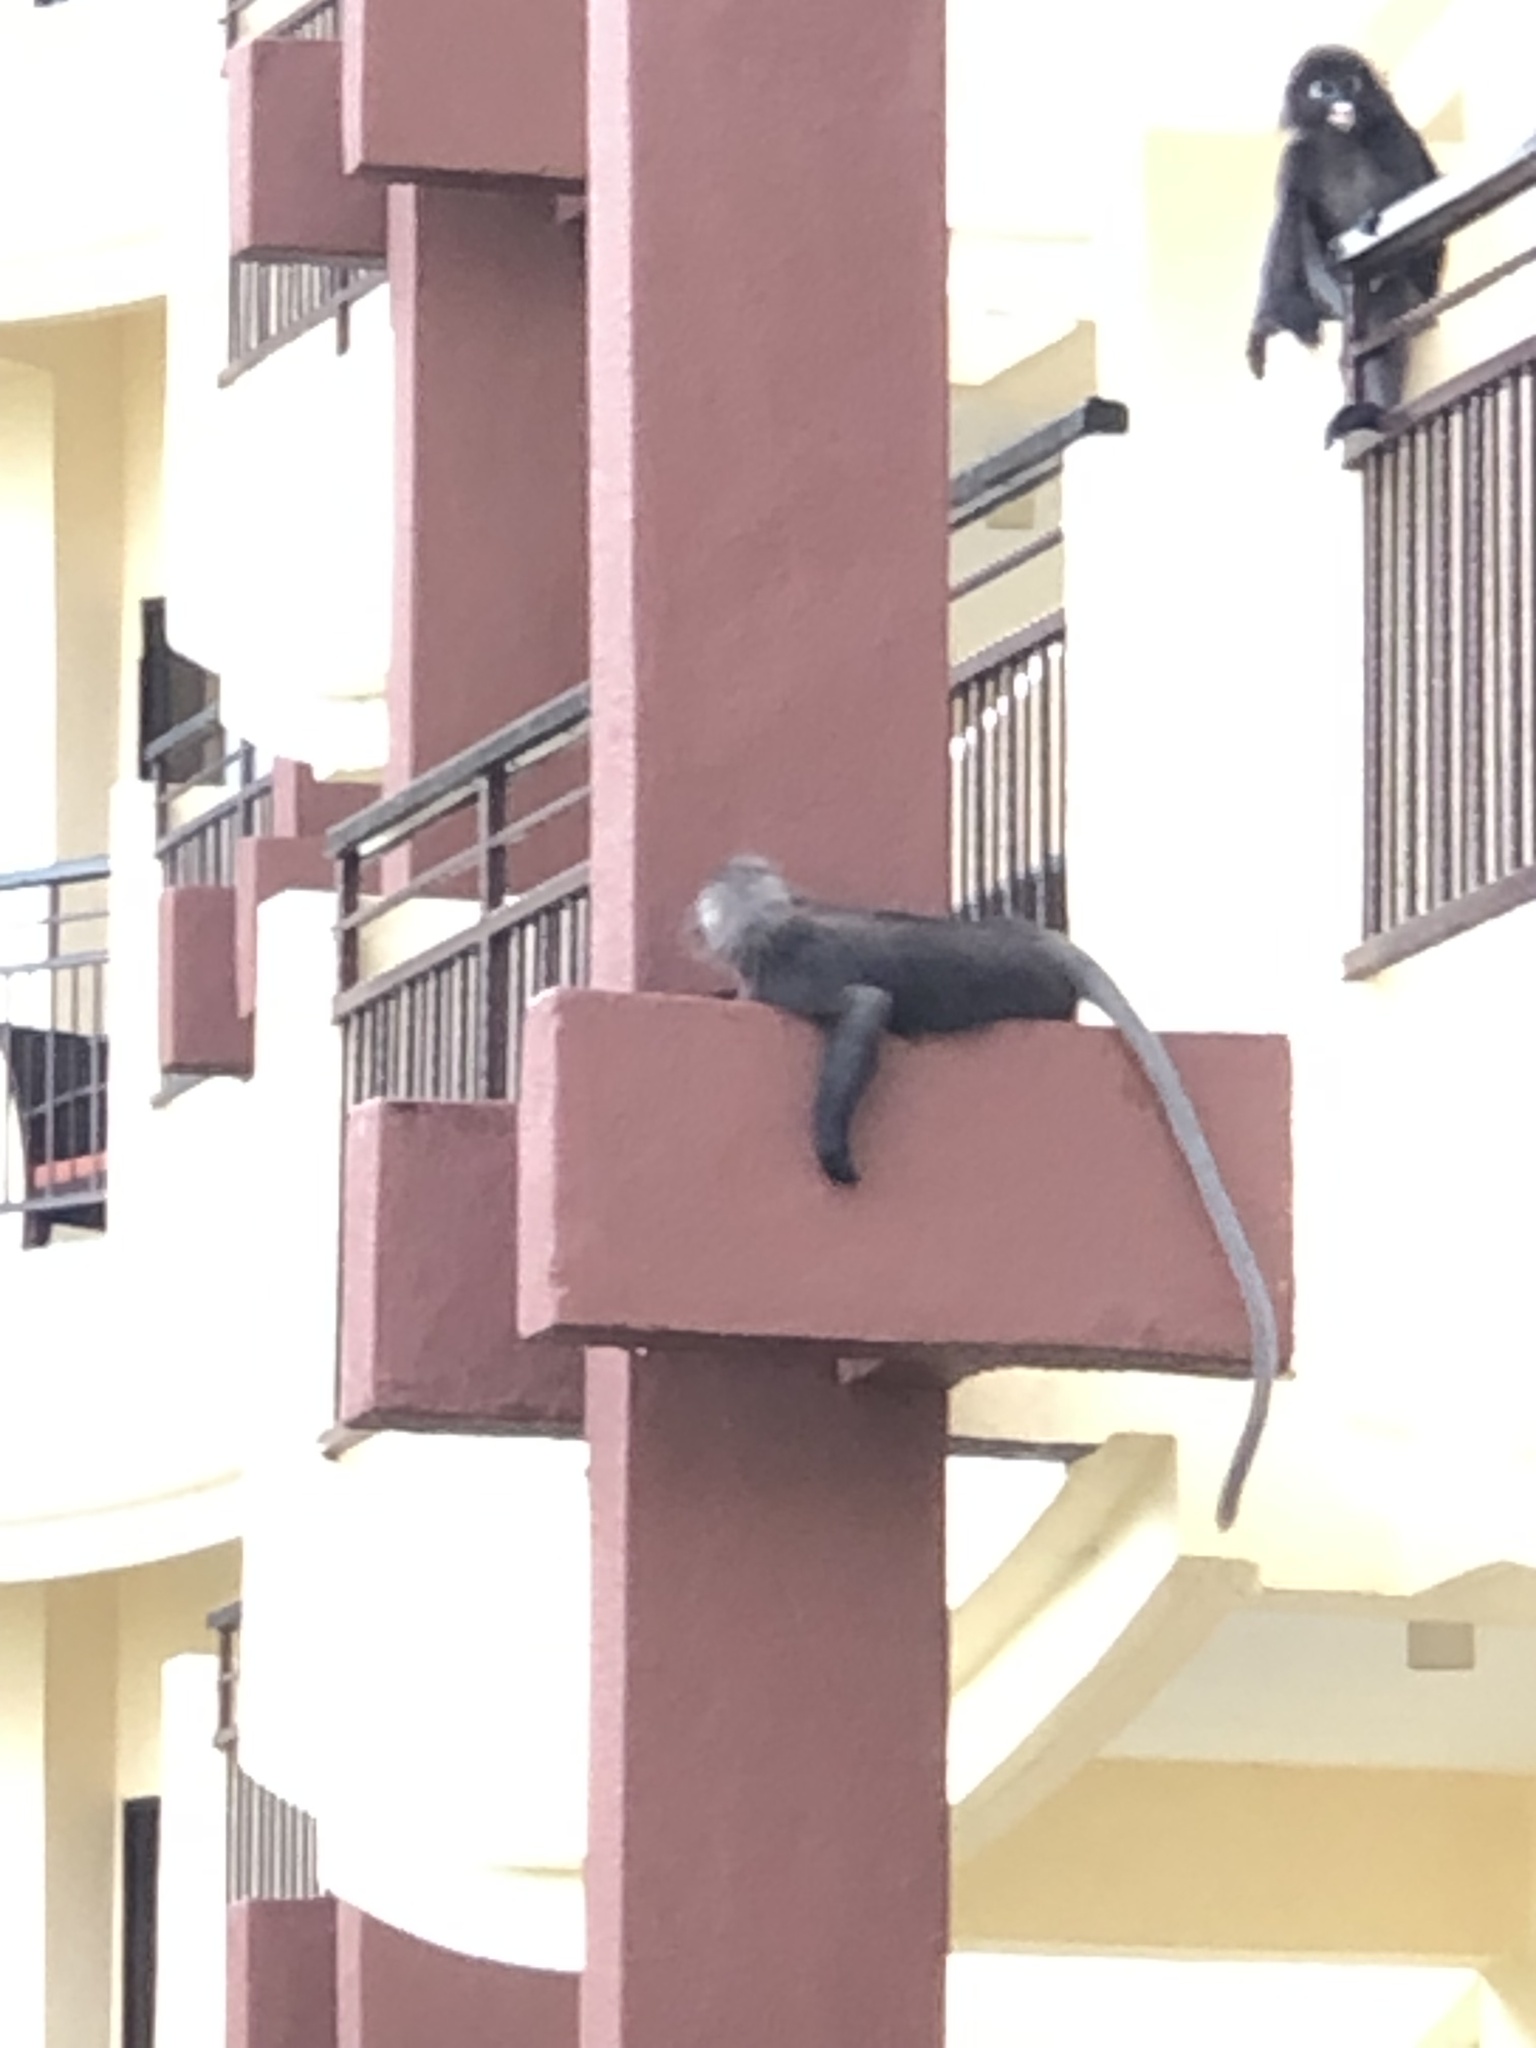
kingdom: Animalia
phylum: Chordata
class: Mammalia
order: Primates
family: Cercopithecidae
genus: Trachypithecus
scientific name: Trachypithecus obscurus
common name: Dusky leaf-monkey
